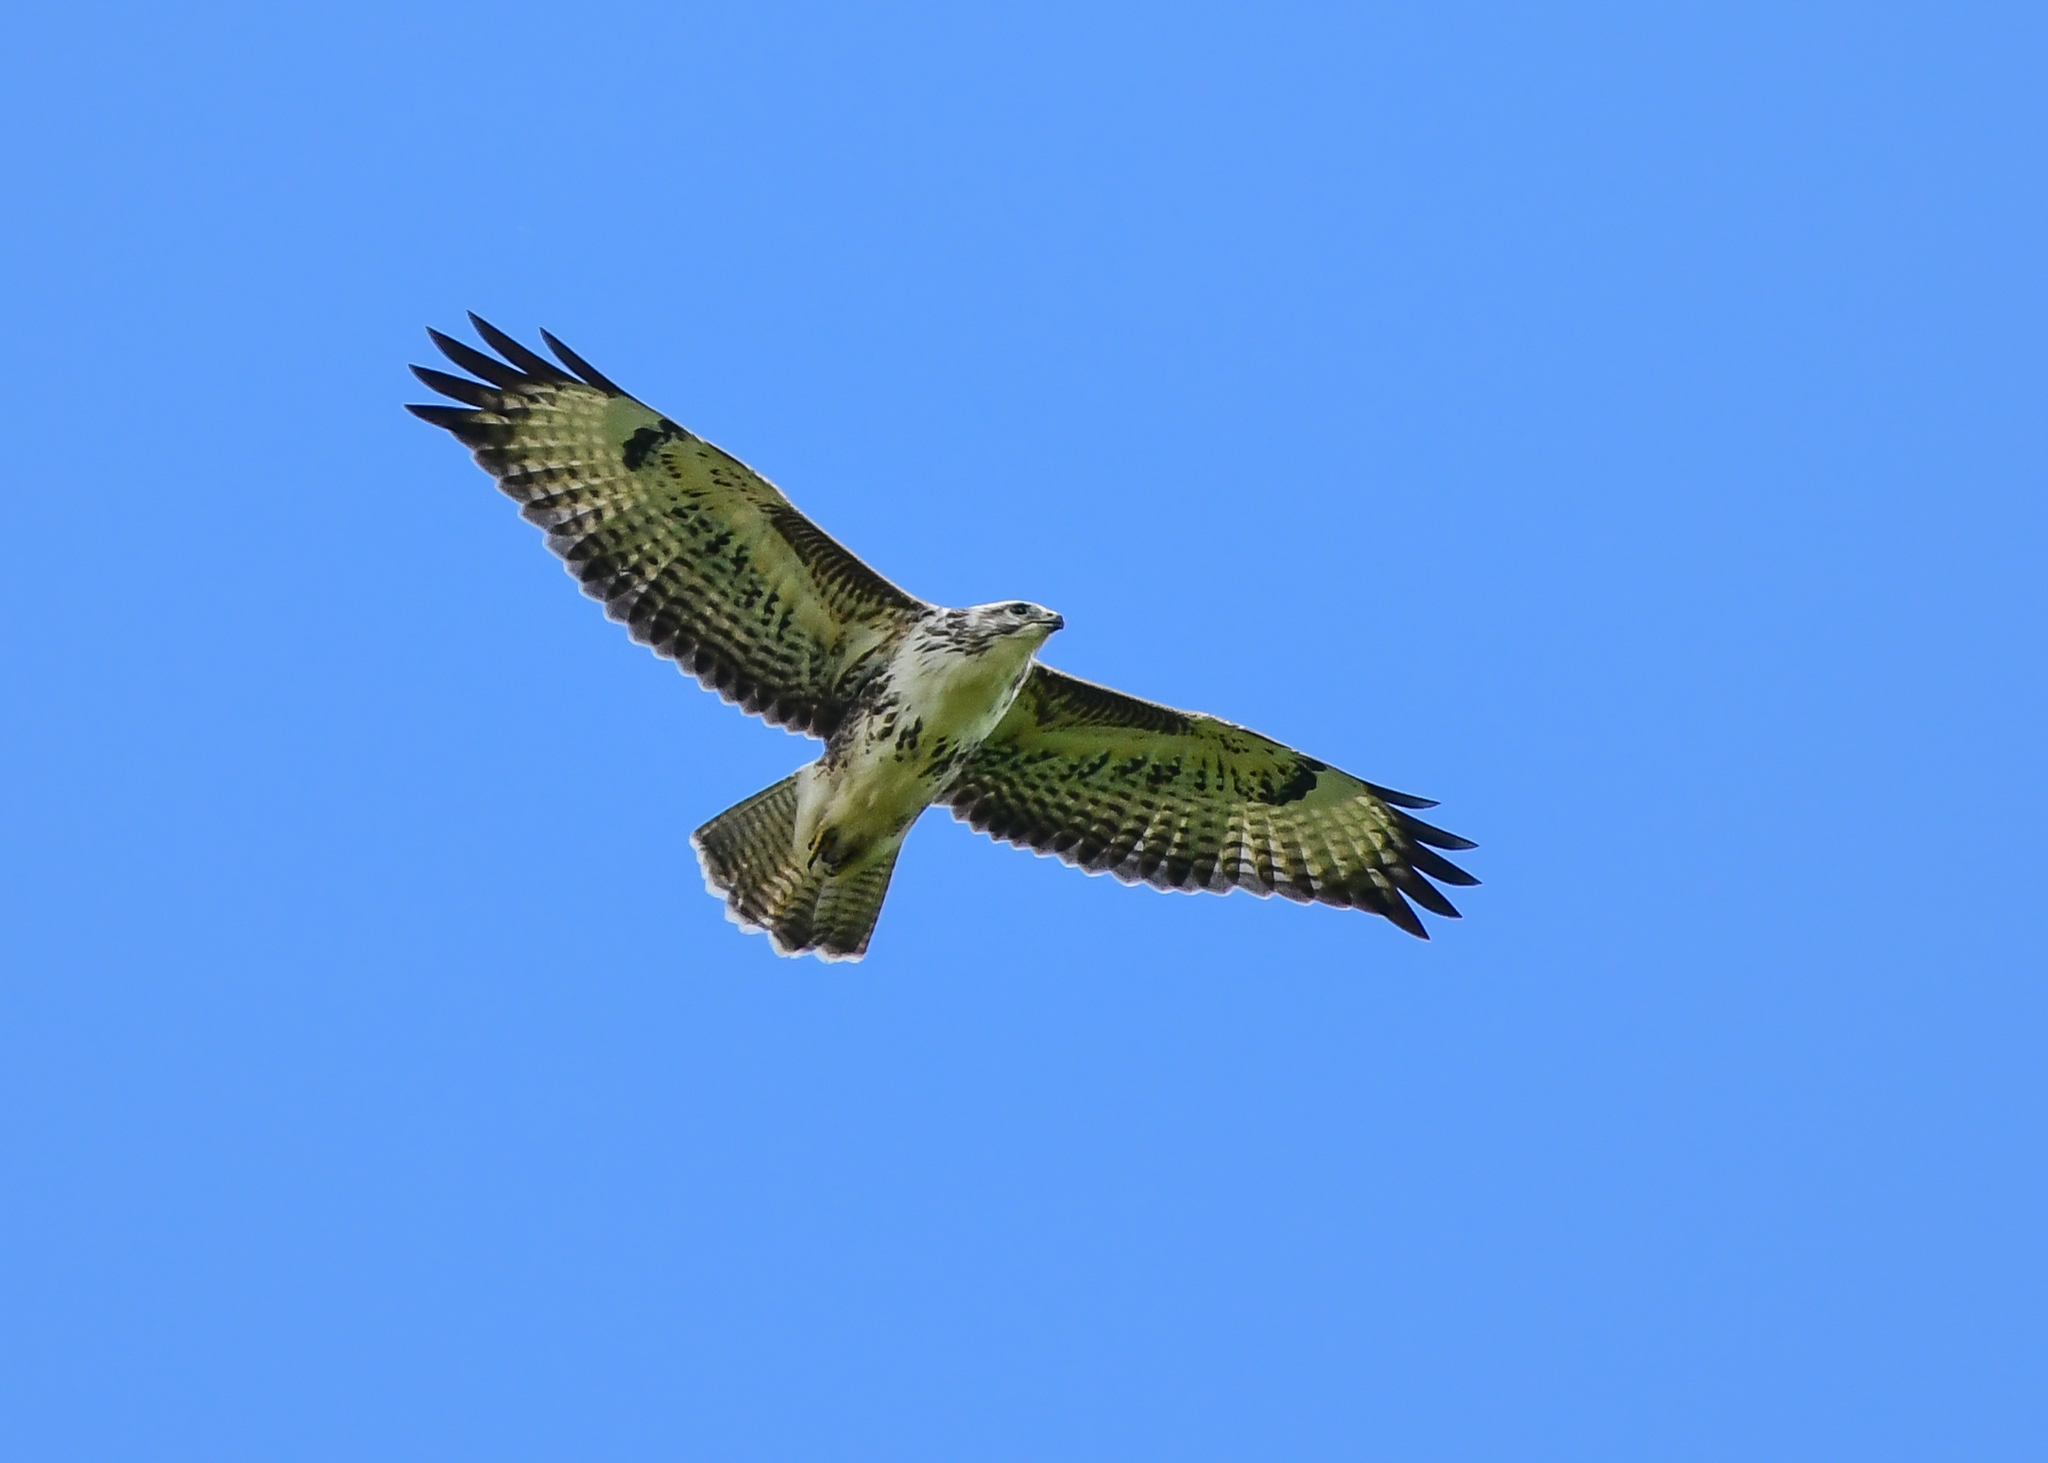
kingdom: Animalia
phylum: Chordata
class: Aves
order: Accipitriformes
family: Accipitridae
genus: Buteo
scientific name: Buteo buteo
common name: Common buzzard
